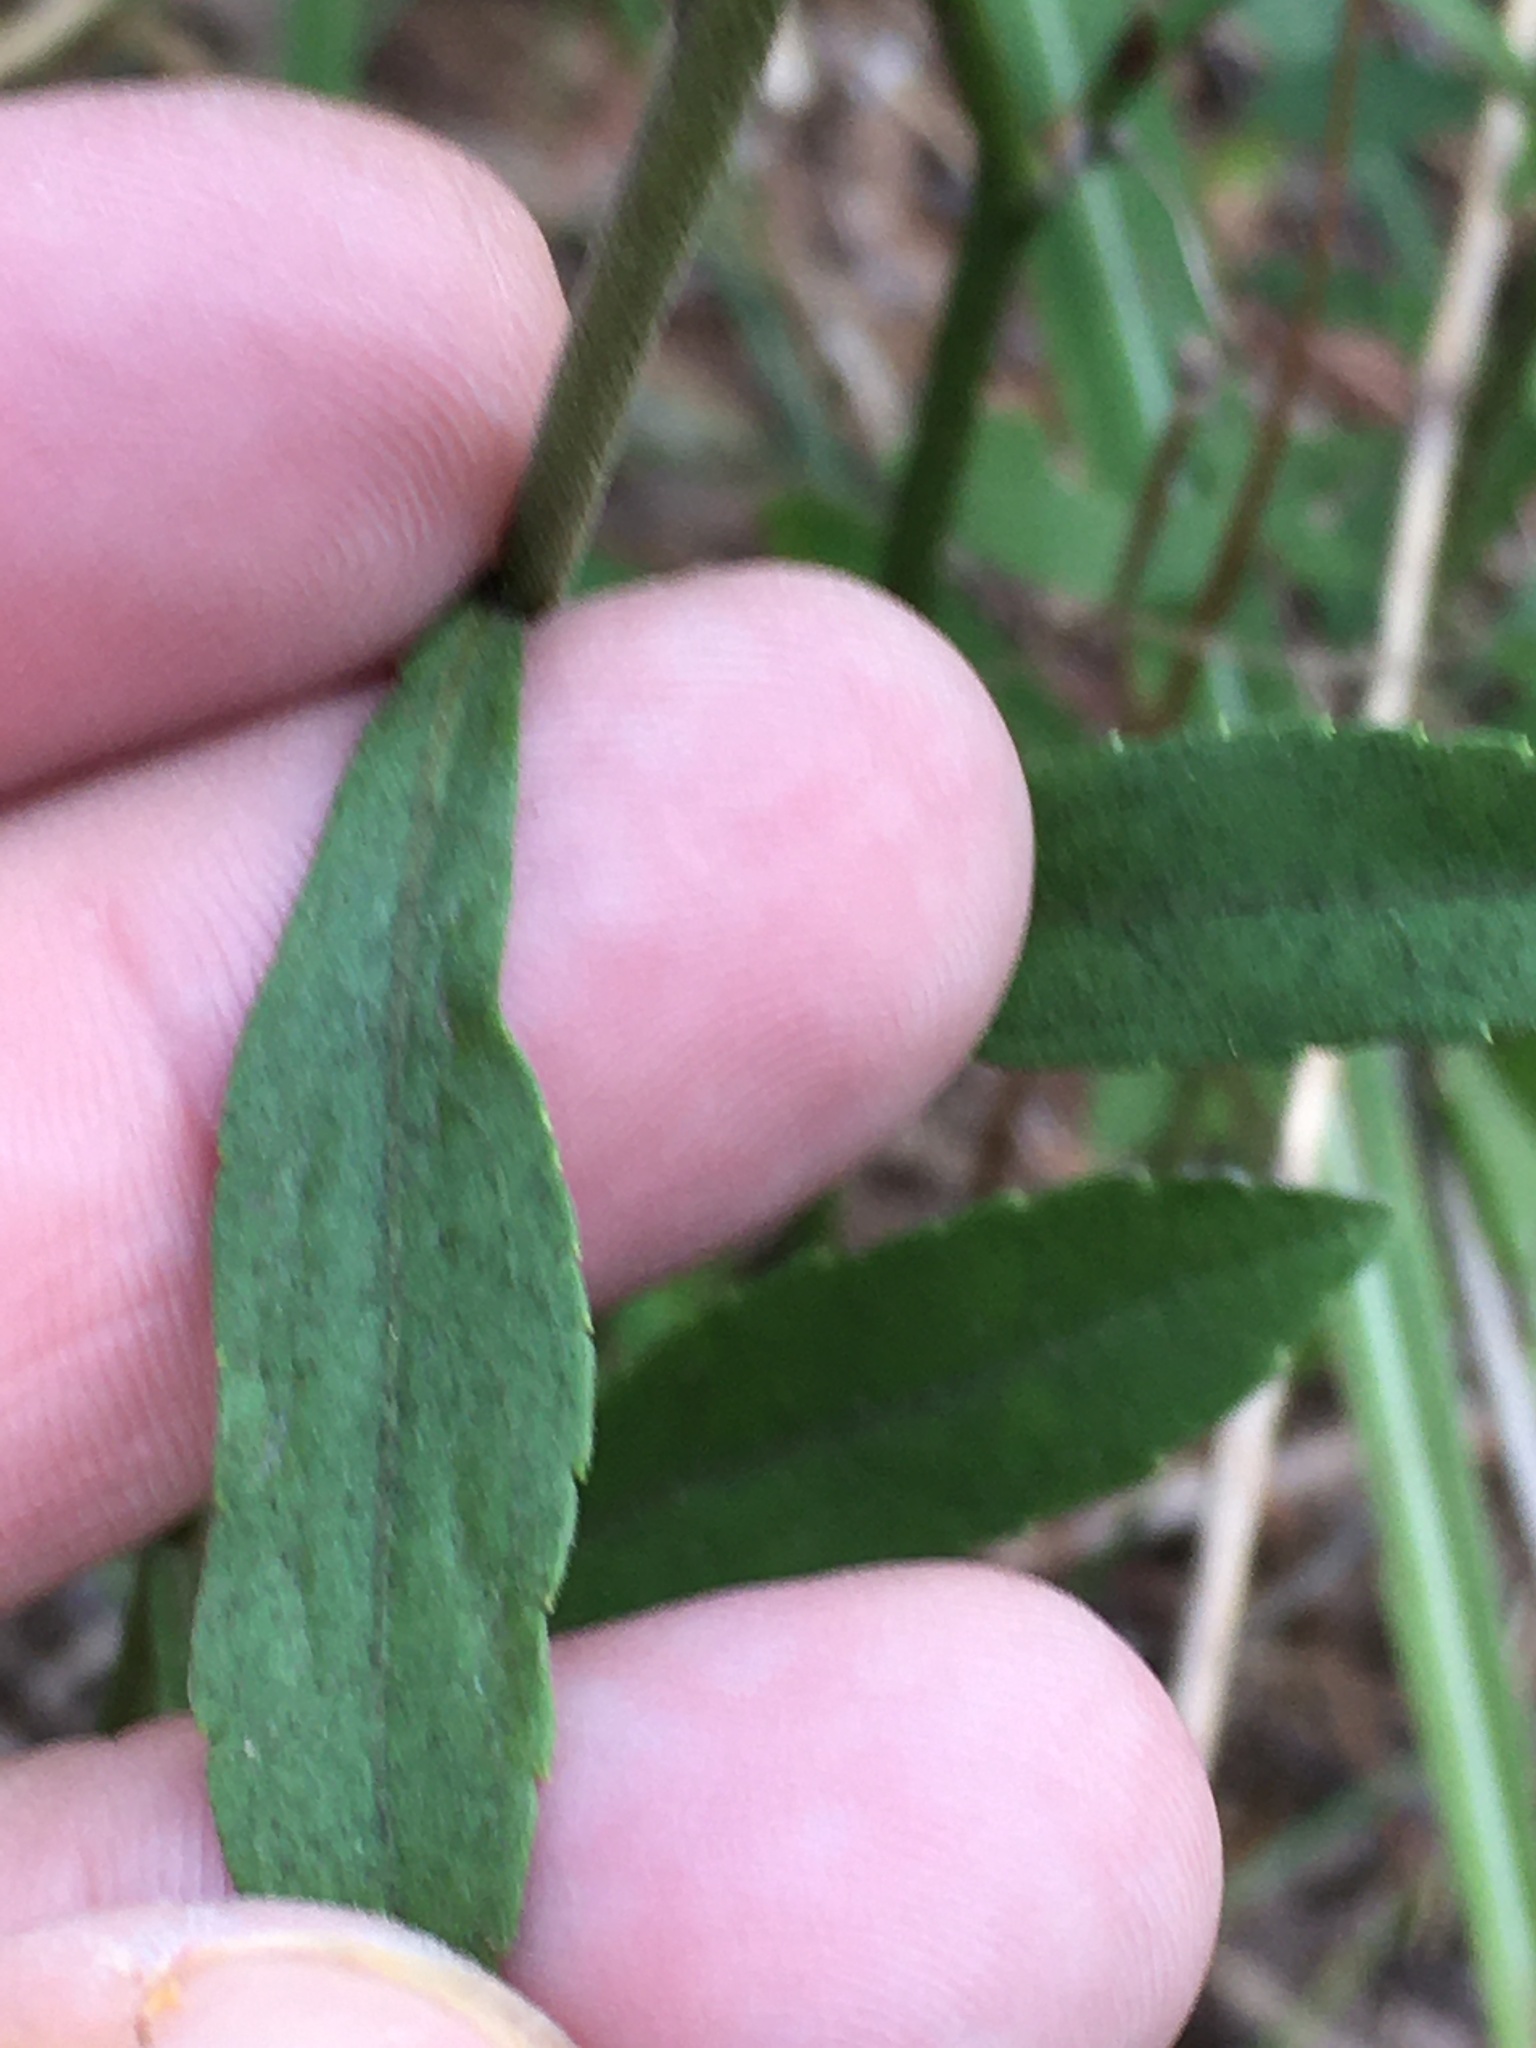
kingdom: Plantae
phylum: Tracheophyta
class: Magnoliopsida
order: Asterales
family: Asteraceae
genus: Solidago
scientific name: Solidago nemoralis
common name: Grey goldenrod
